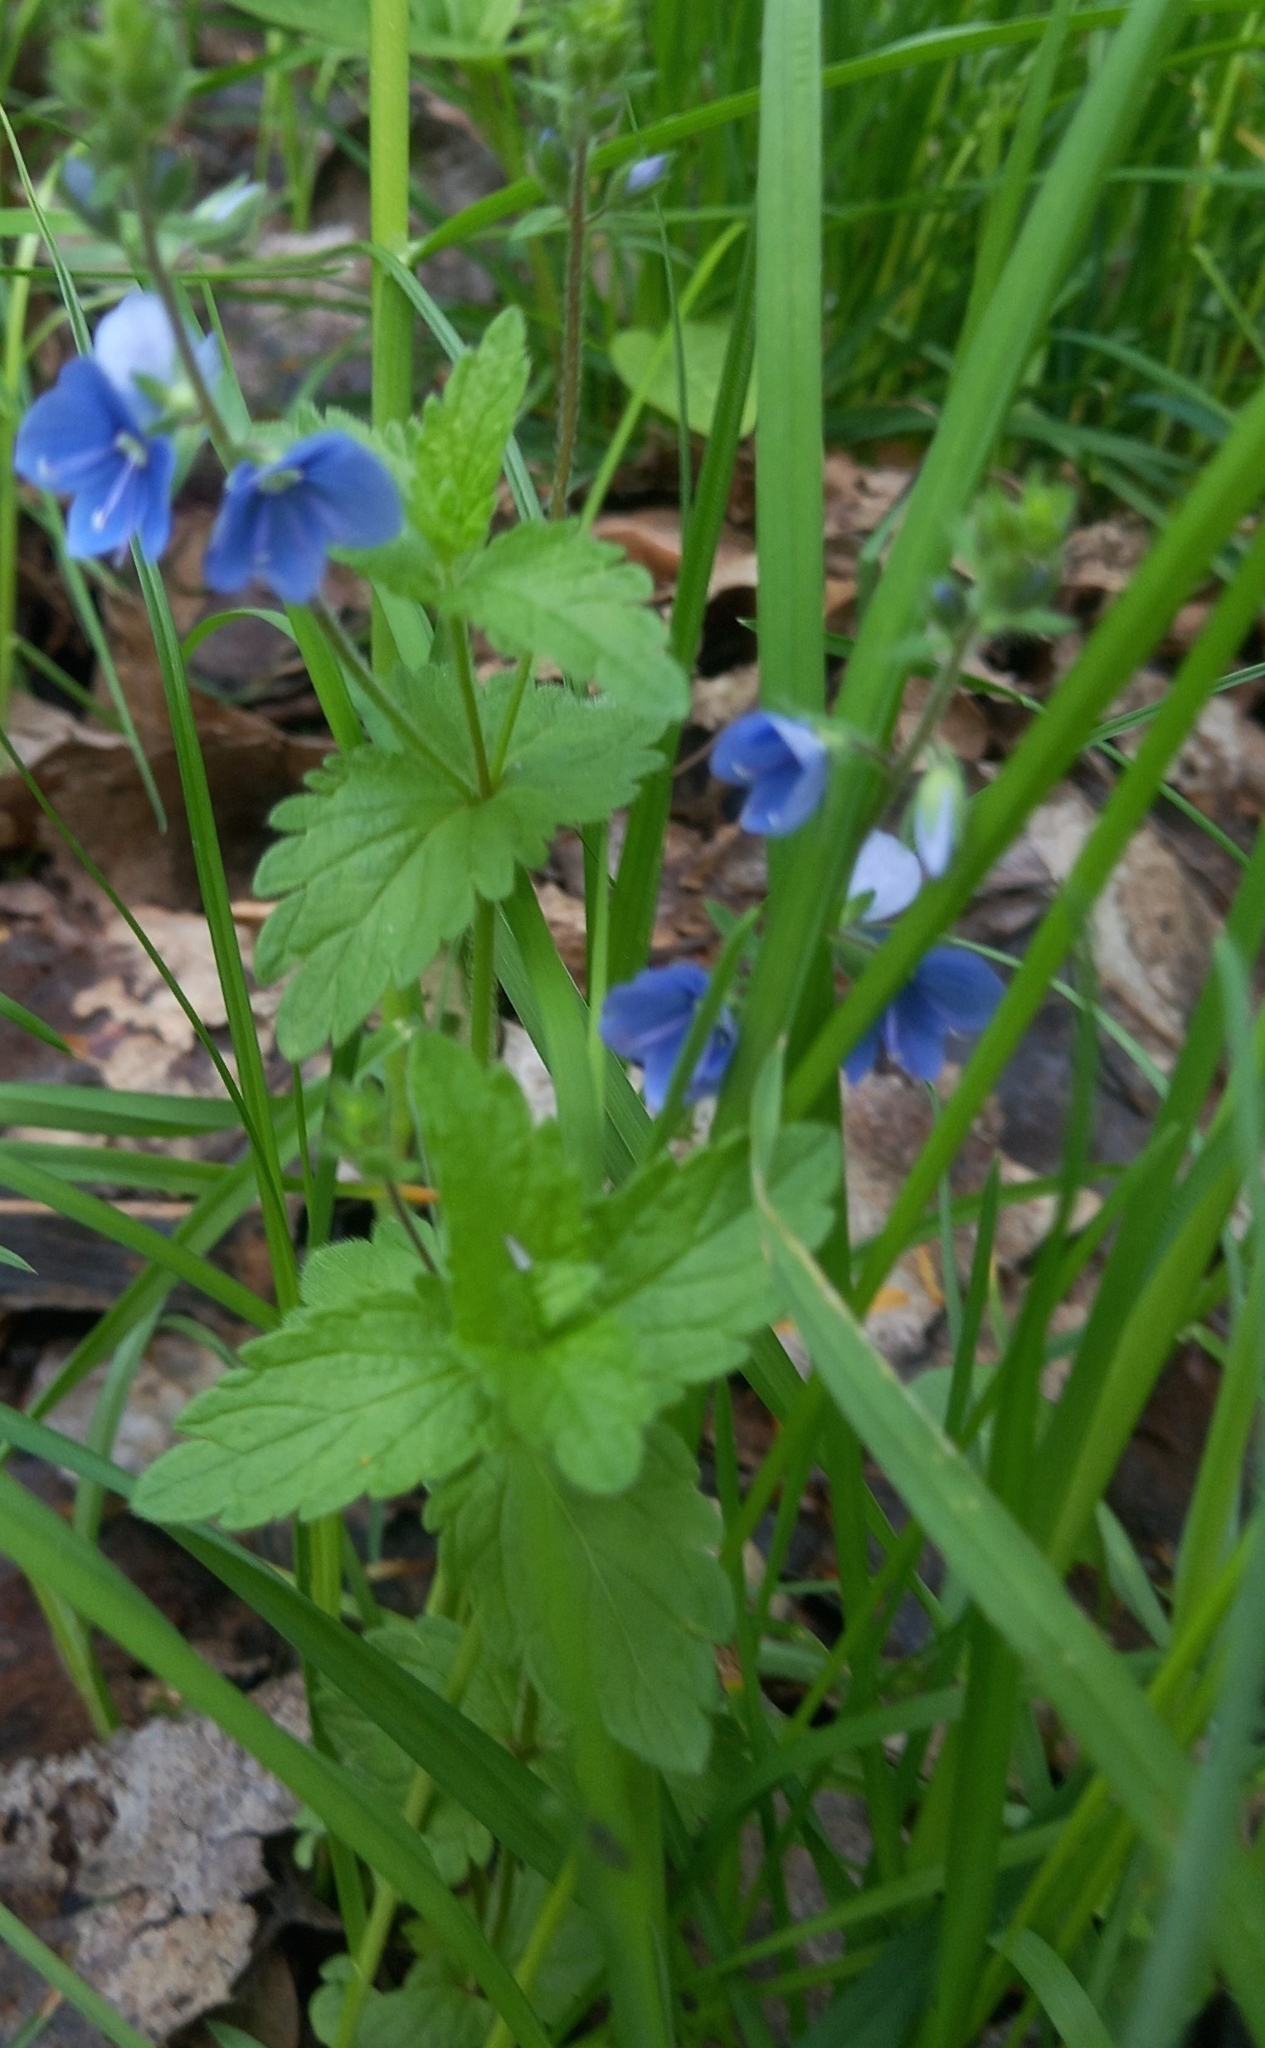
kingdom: Plantae
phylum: Tracheophyta
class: Magnoliopsida
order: Lamiales
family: Plantaginaceae
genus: Veronica
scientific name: Veronica chamaedrys
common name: Germander speedwell
